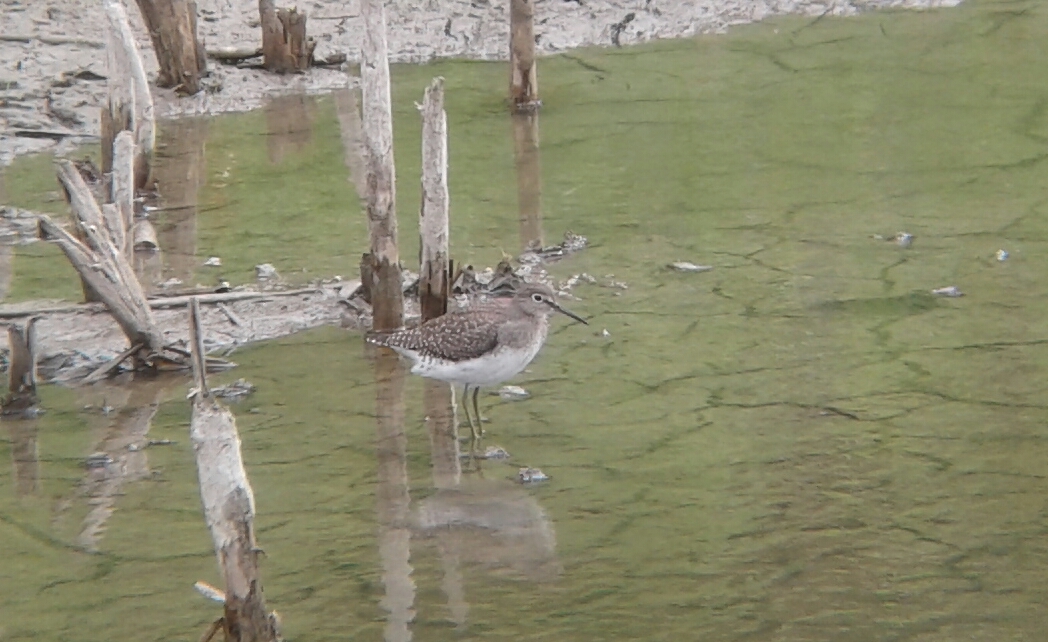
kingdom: Animalia
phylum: Chordata
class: Aves
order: Charadriiformes
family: Scolopacidae
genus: Tringa
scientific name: Tringa solitaria
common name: Solitary sandpiper
